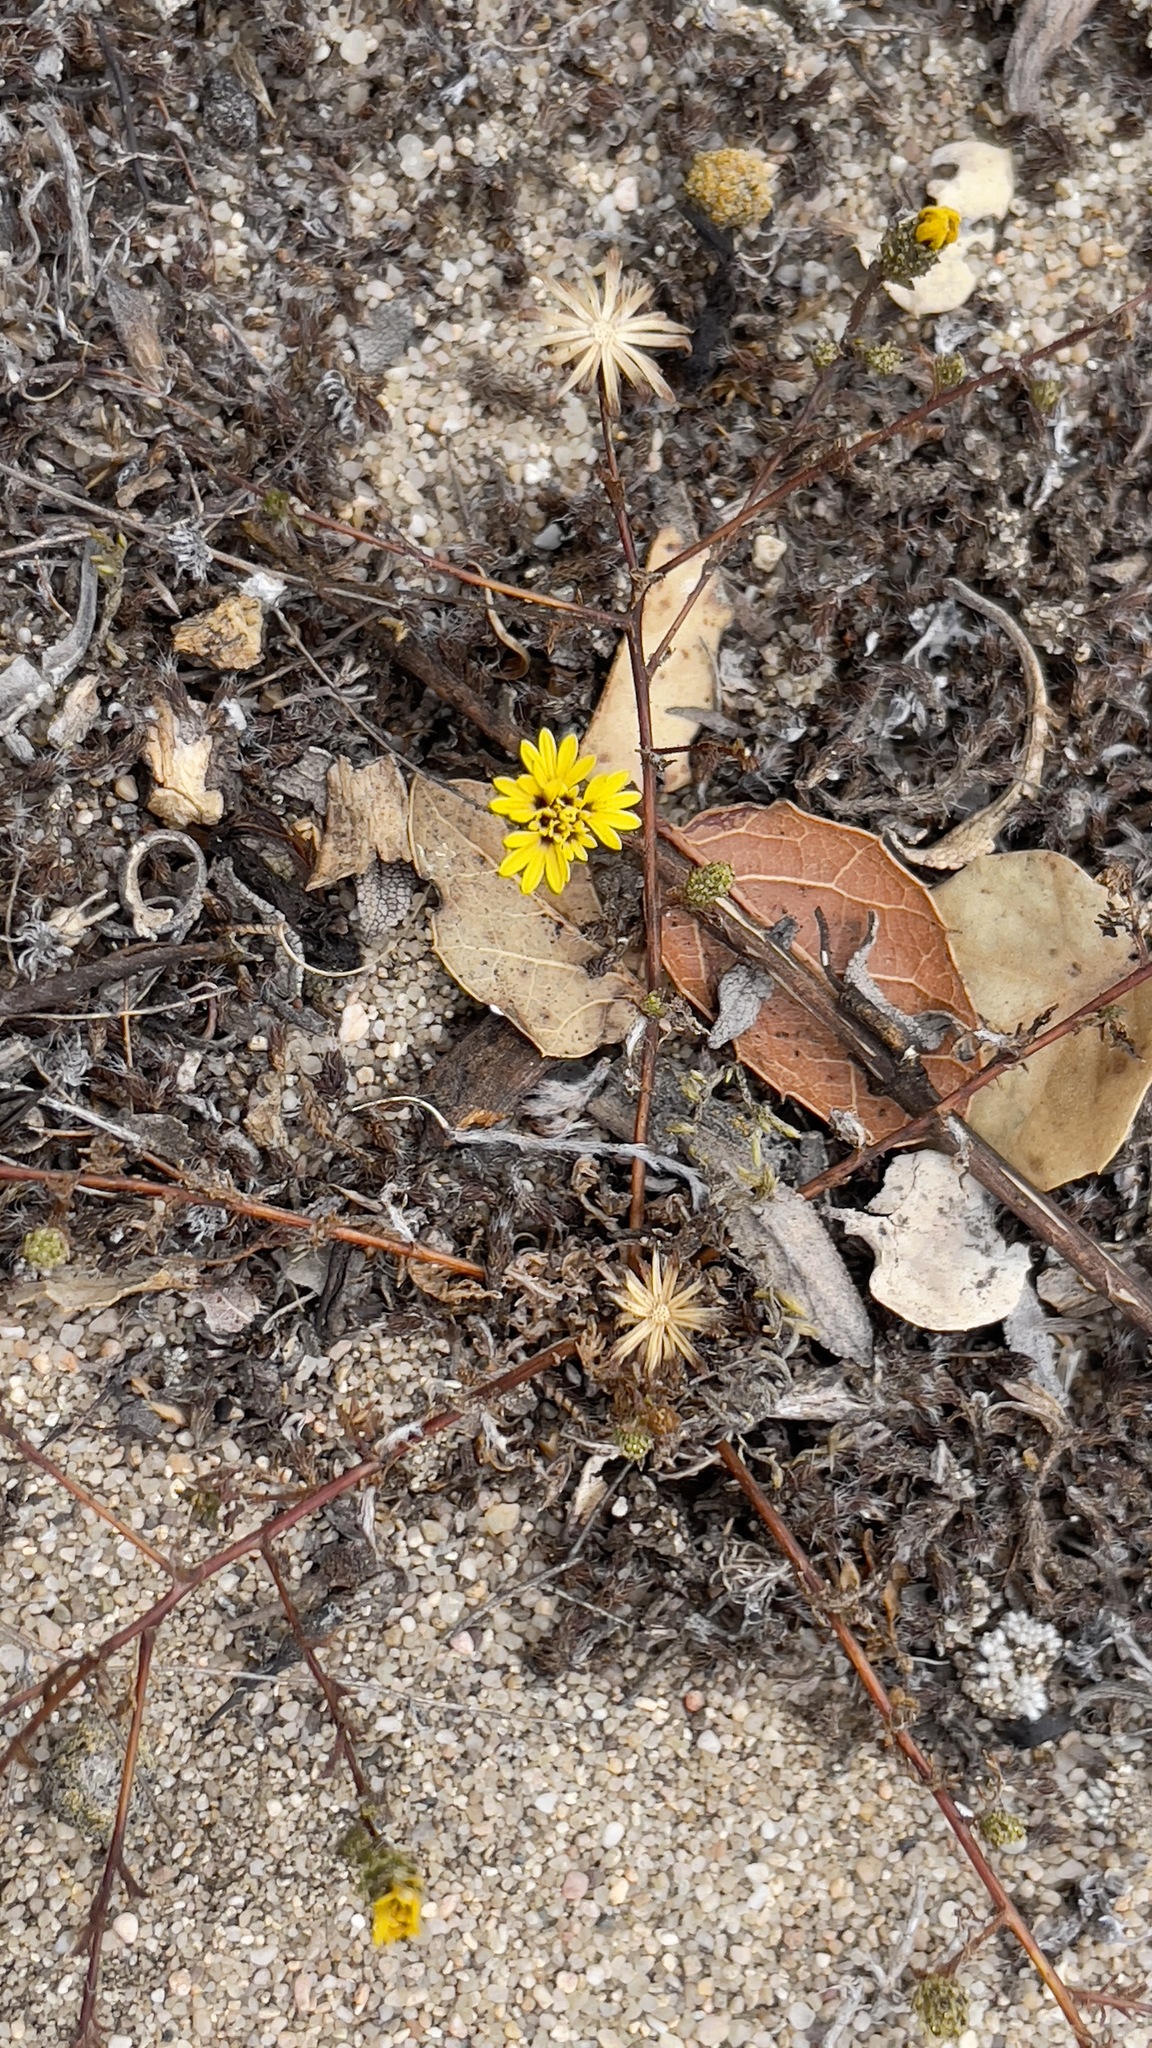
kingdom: Plantae
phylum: Tracheophyta
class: Magnoliopsida
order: Asterales
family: Asteraceae
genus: Lessingia
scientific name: Lessingia pectinata
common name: Valley lessingia
